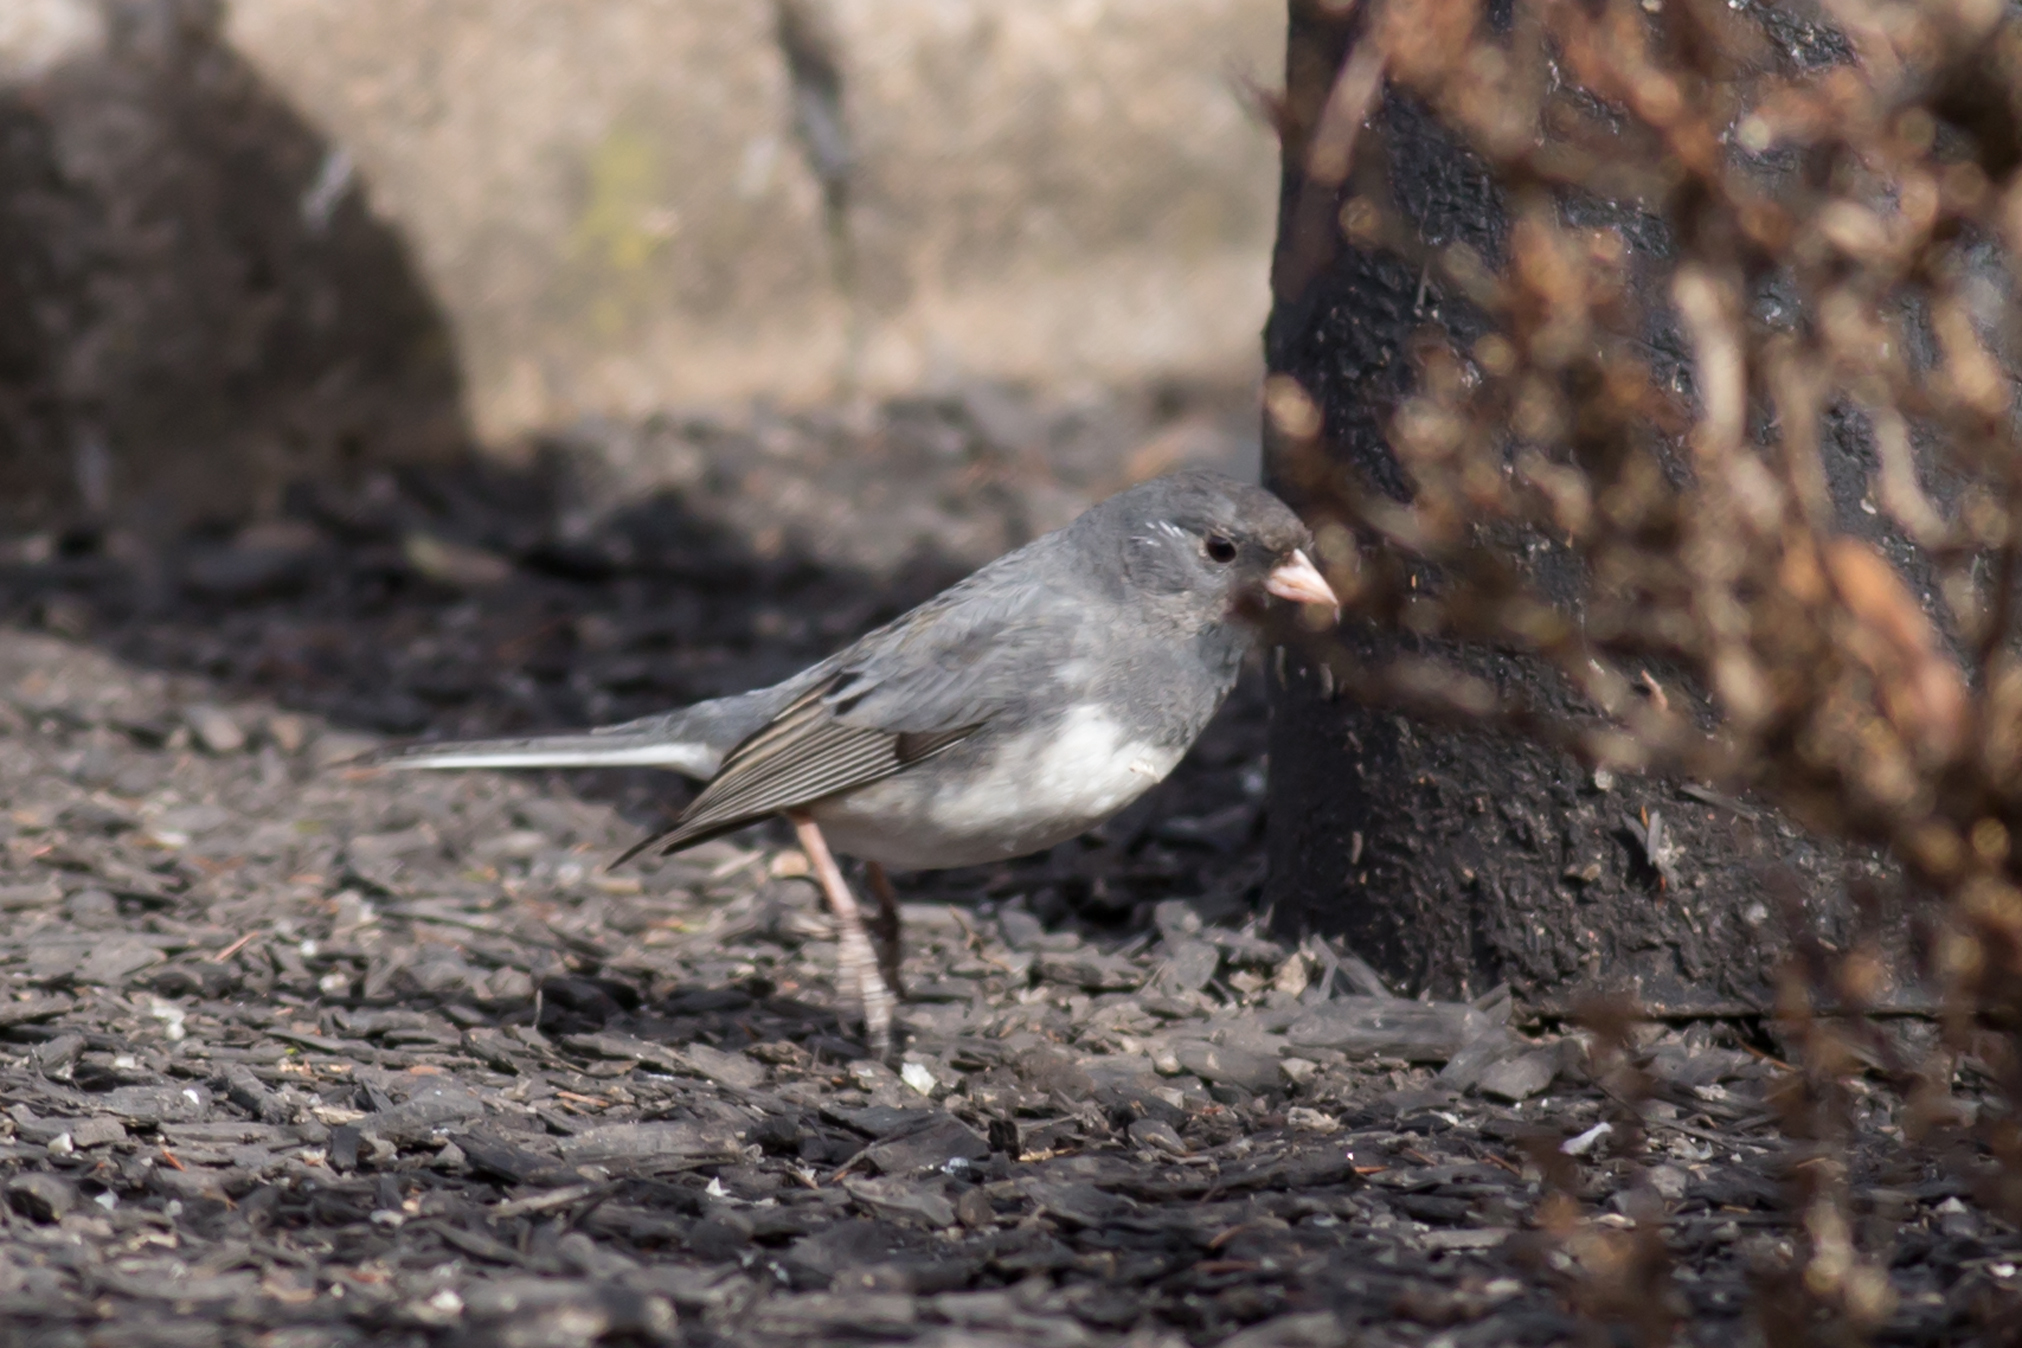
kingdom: Animalia
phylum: Chordata
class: Aves
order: Passeriformes
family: Passerellidae
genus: Junco
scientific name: Junco hyemalis
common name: Dark-eyed junco
